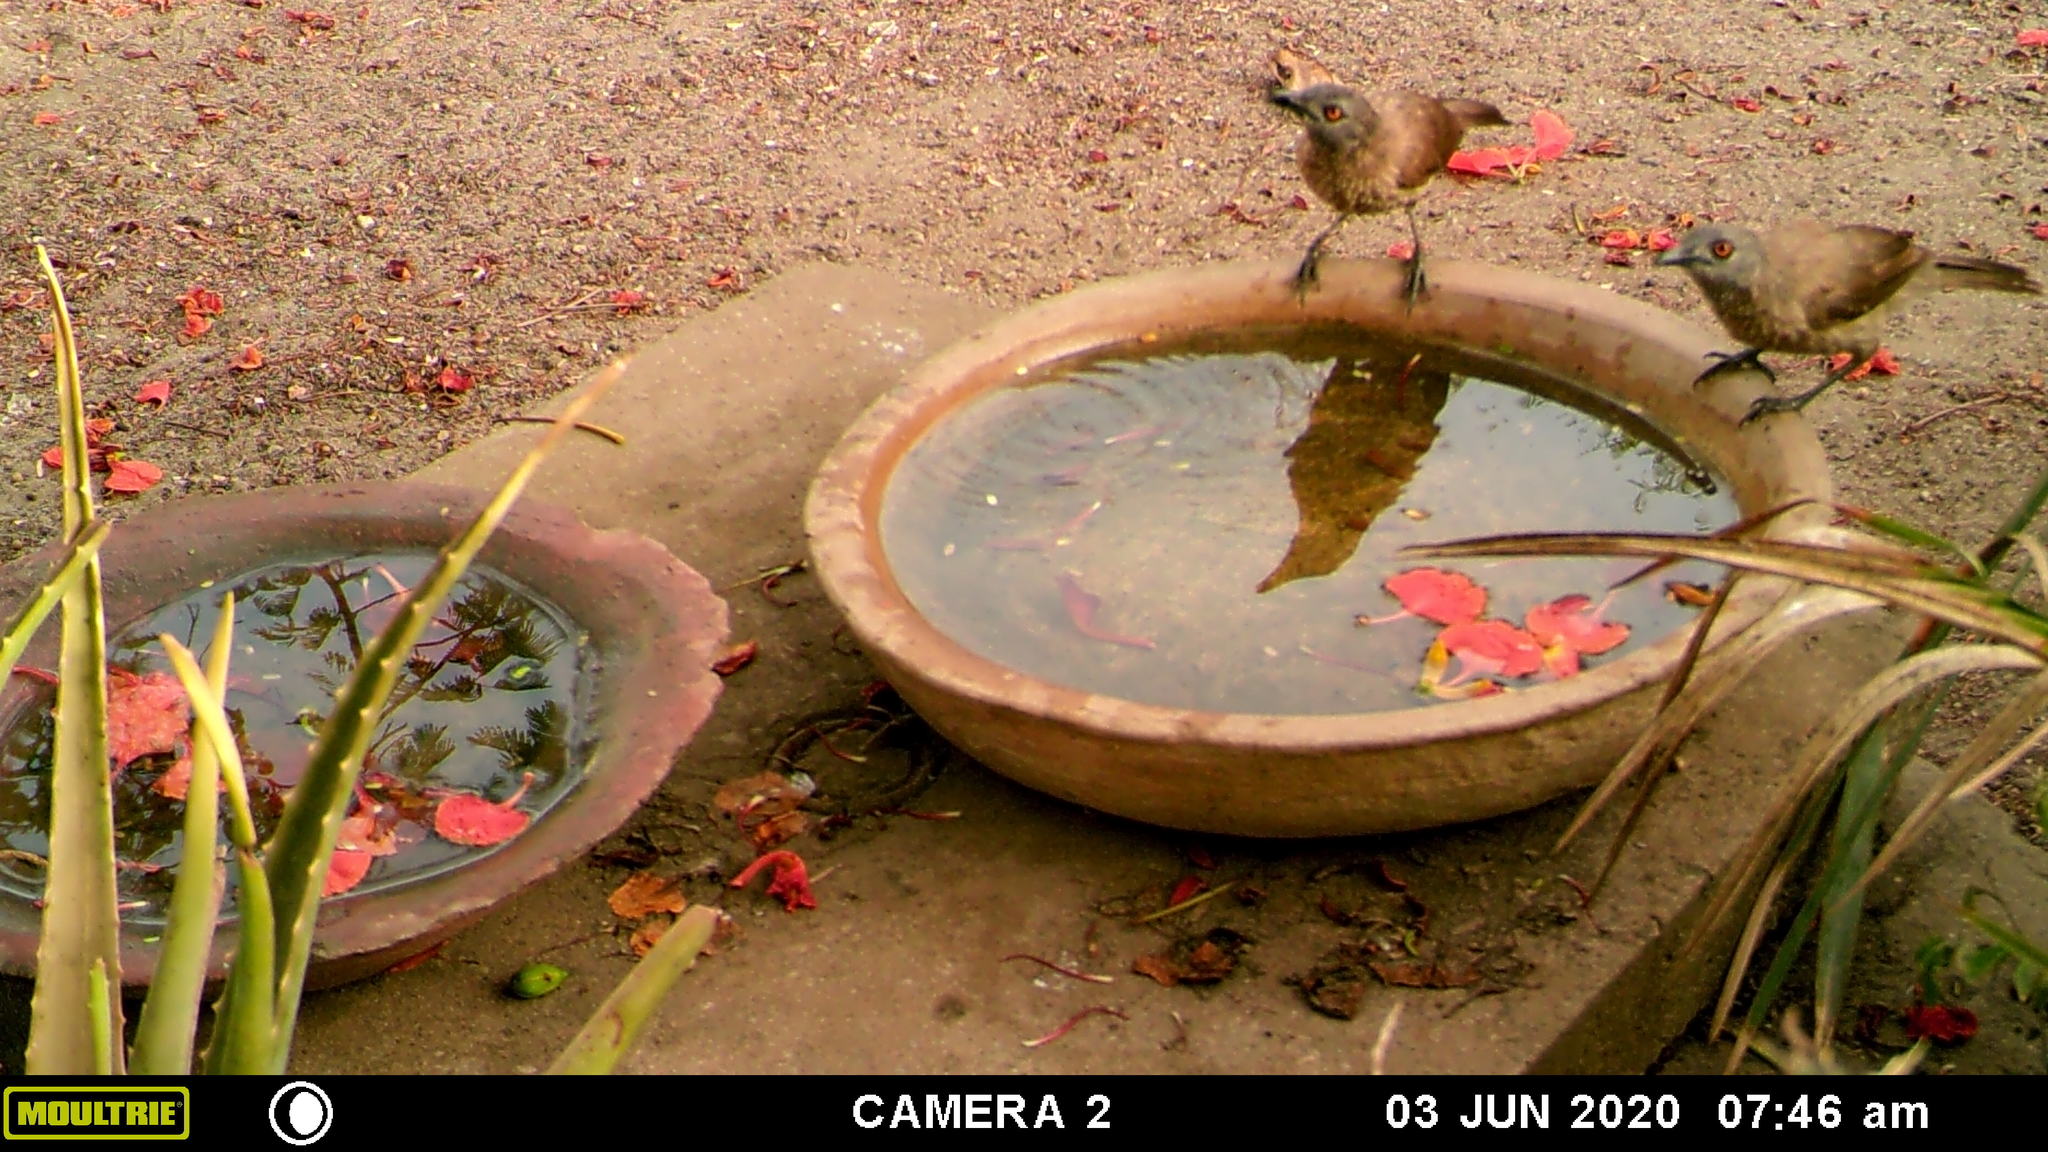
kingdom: Animalia
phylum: Chordata
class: Aves
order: Passeriformes
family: Leiothrichidae
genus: Turdoides
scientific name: Turdoides plebejus
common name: Brown babbler
